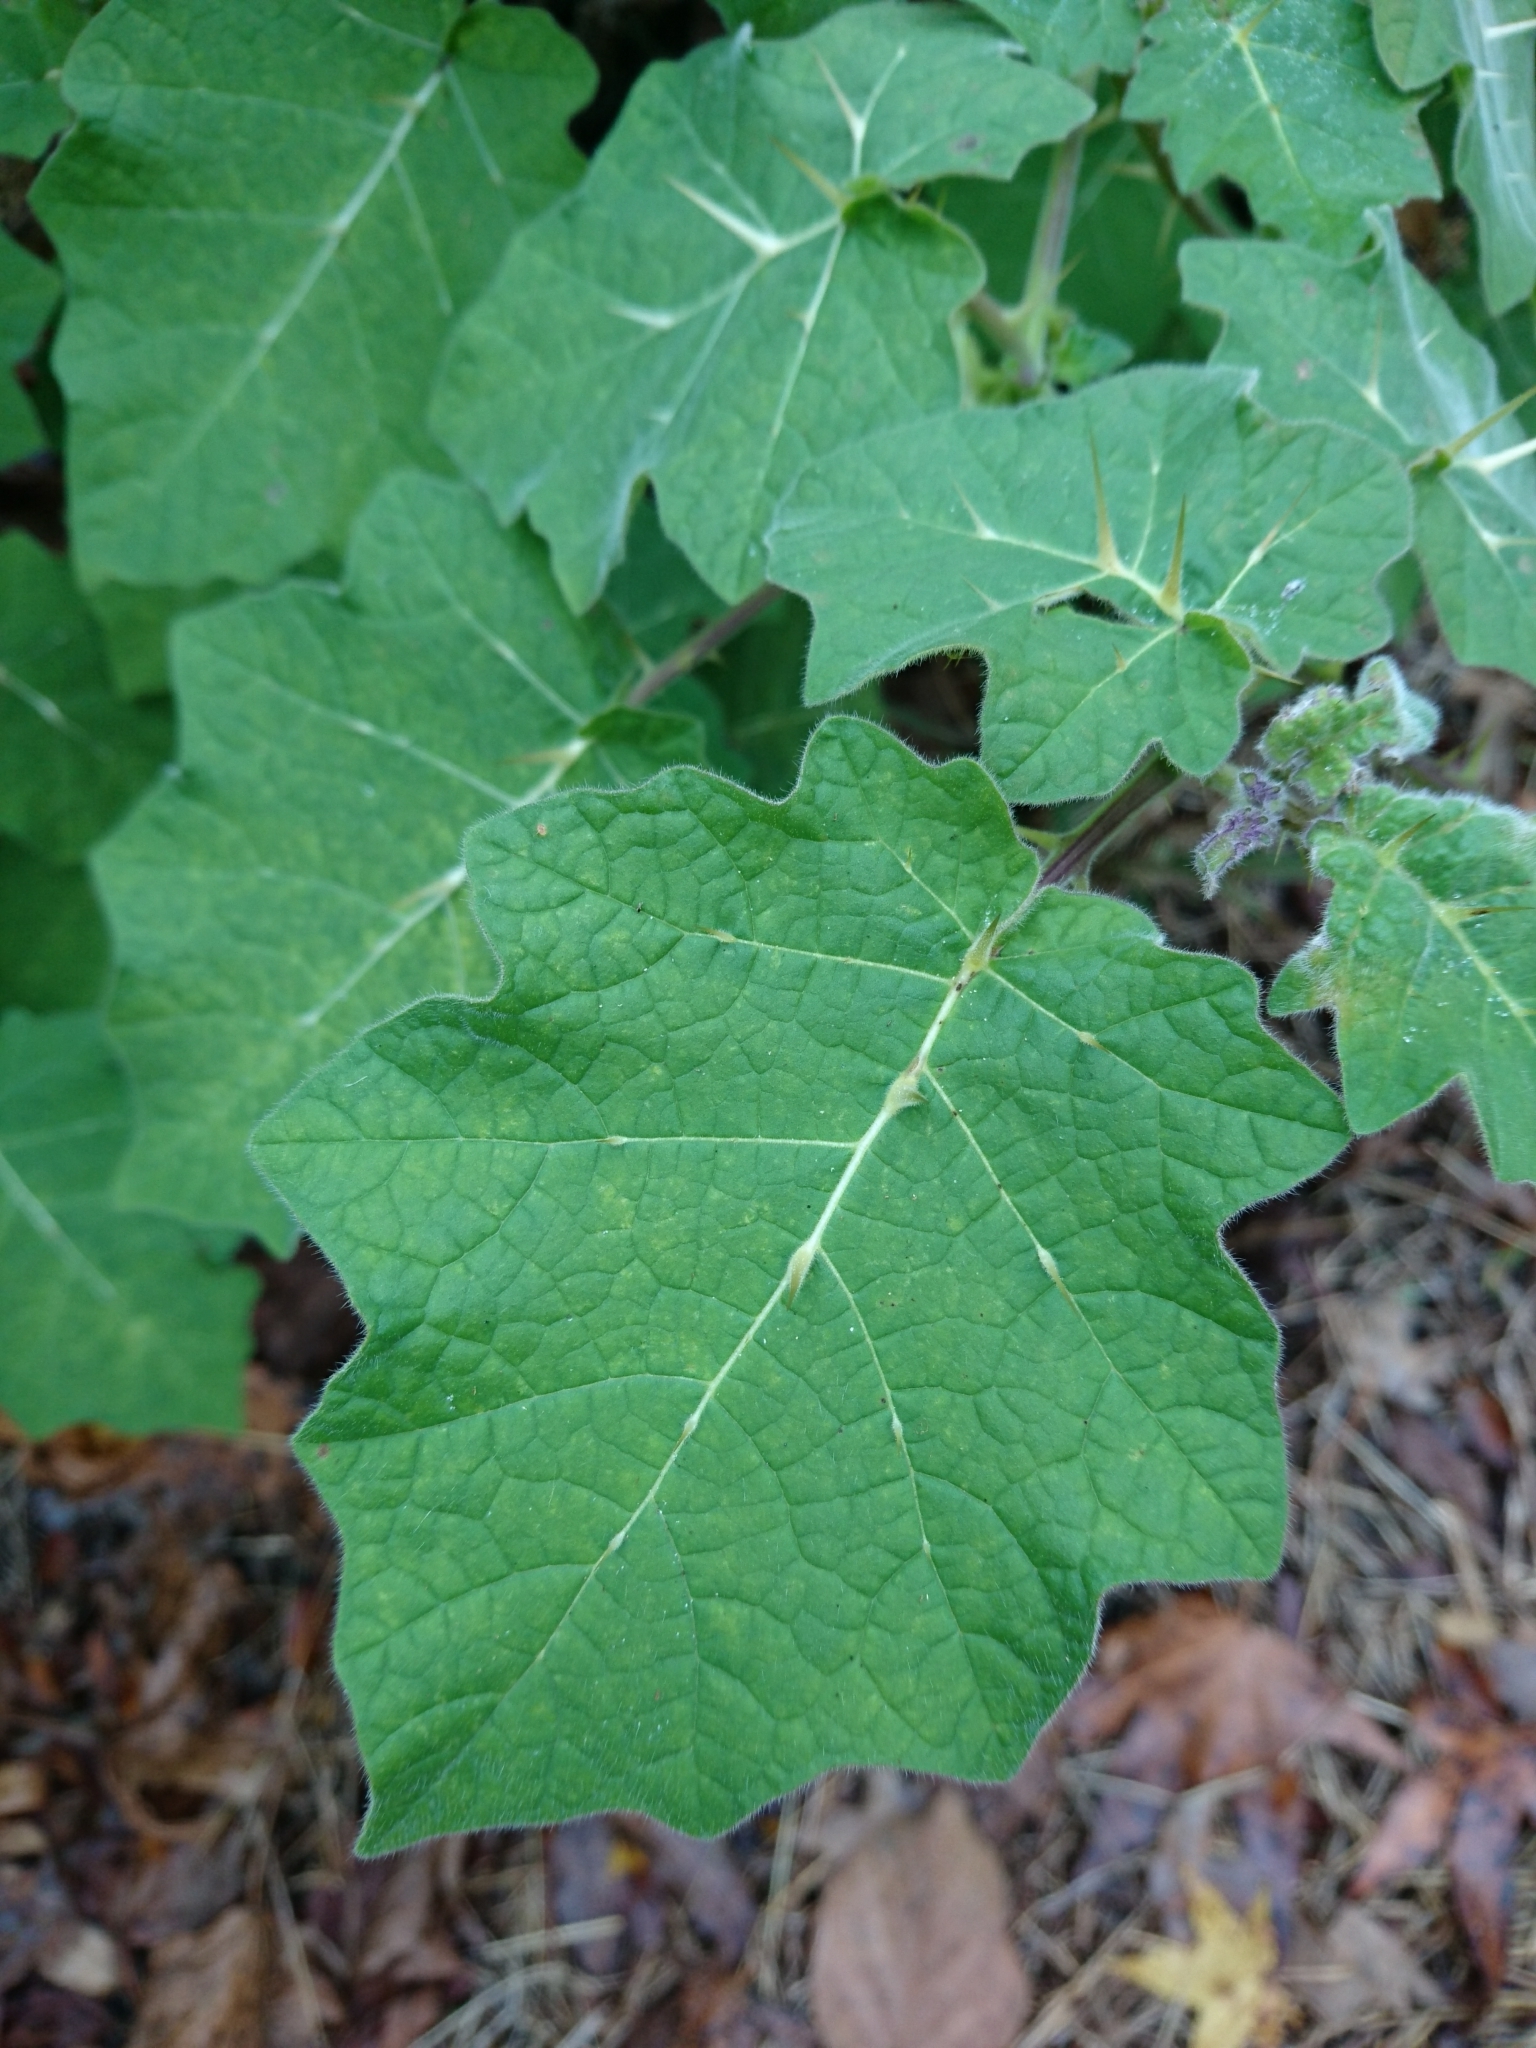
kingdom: Plantae
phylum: Tracheophyta
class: Magnoliopsida
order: Solanales
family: Solanaceae
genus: Solanum
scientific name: Solanum viarum
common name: Tropical soda apple
